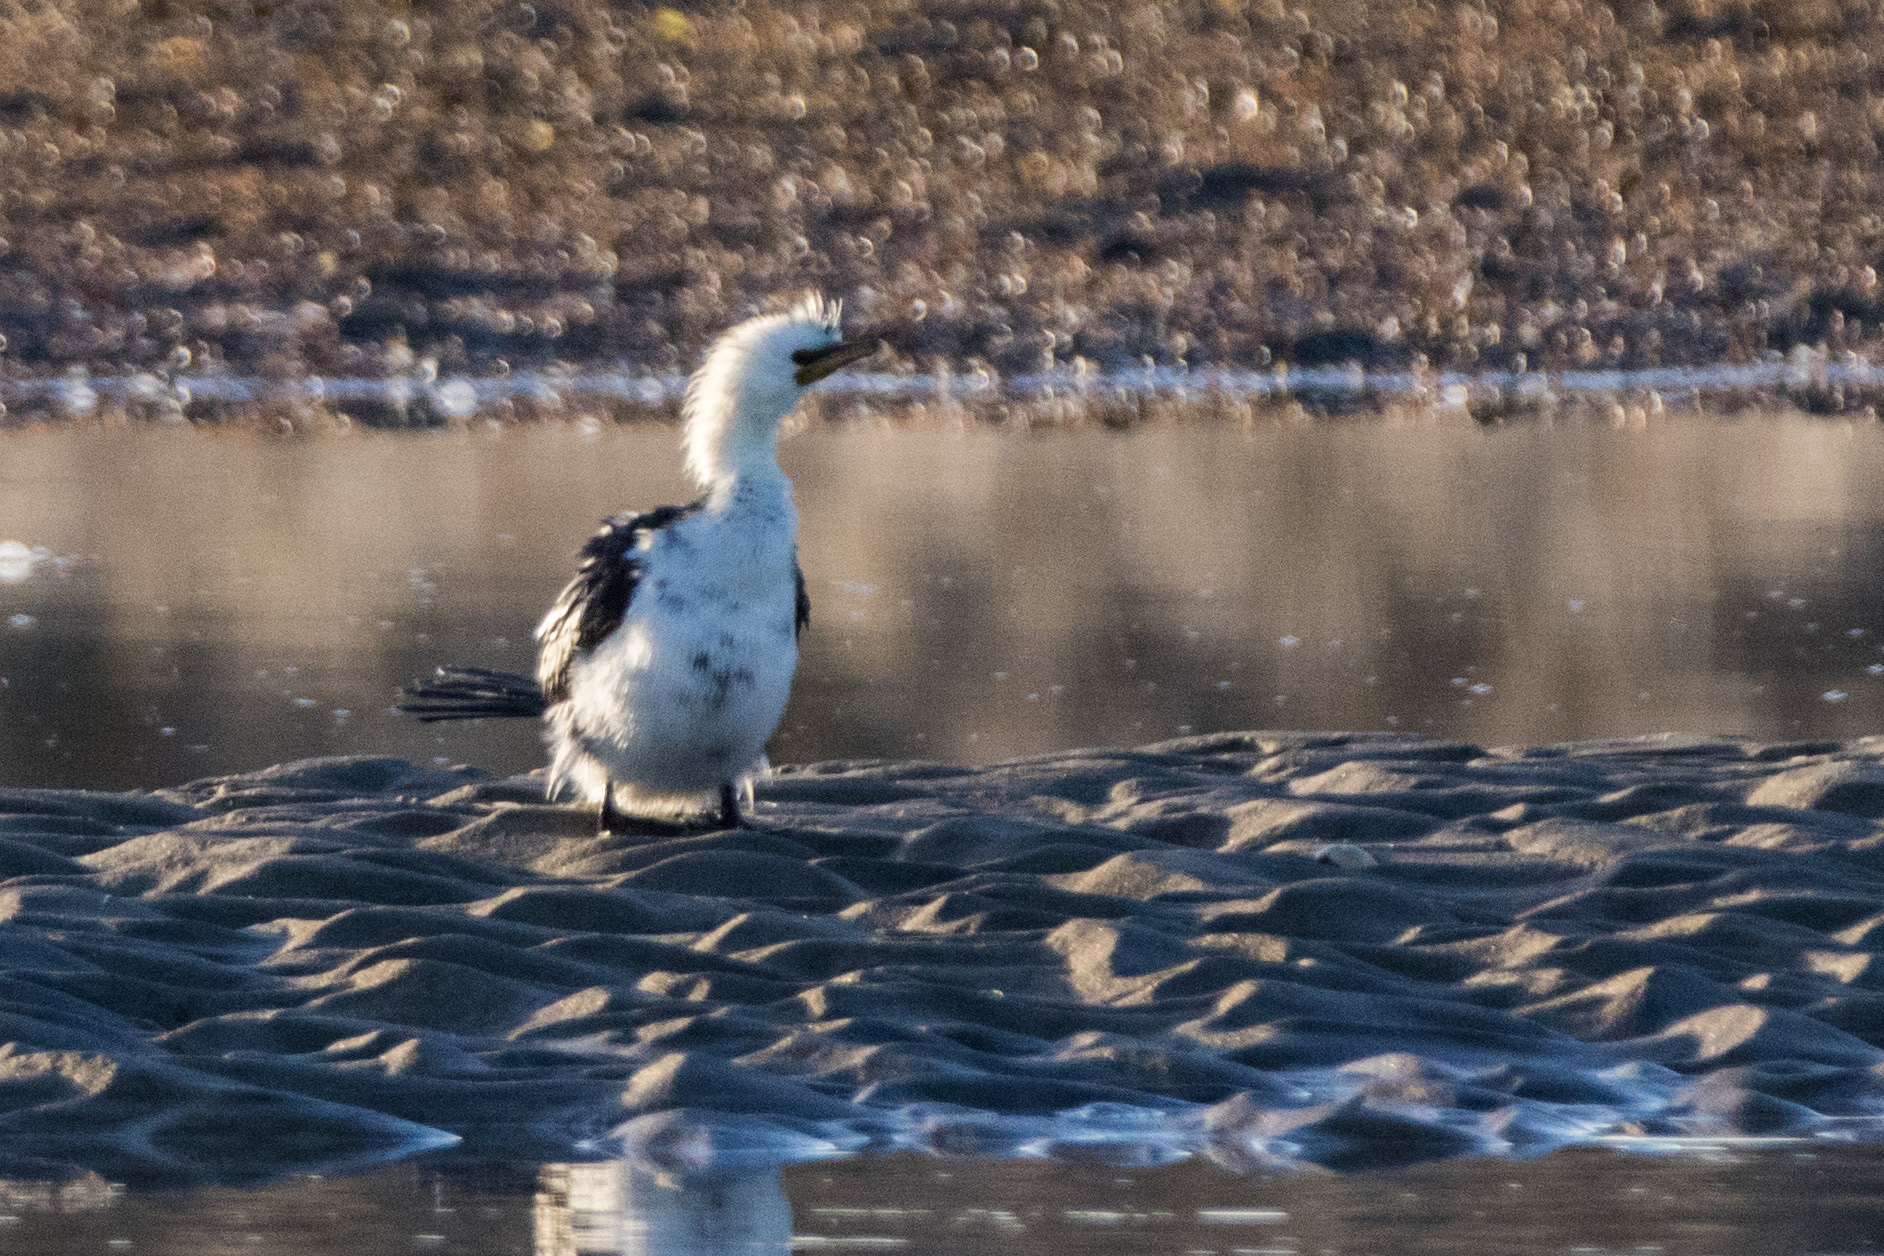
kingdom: Animalia
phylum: Chordata
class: Aves
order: Suliformes
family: Phalacrocoracidae
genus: Microcarbo
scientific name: Microcarbo melanoleucos
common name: Little pied cormorant
